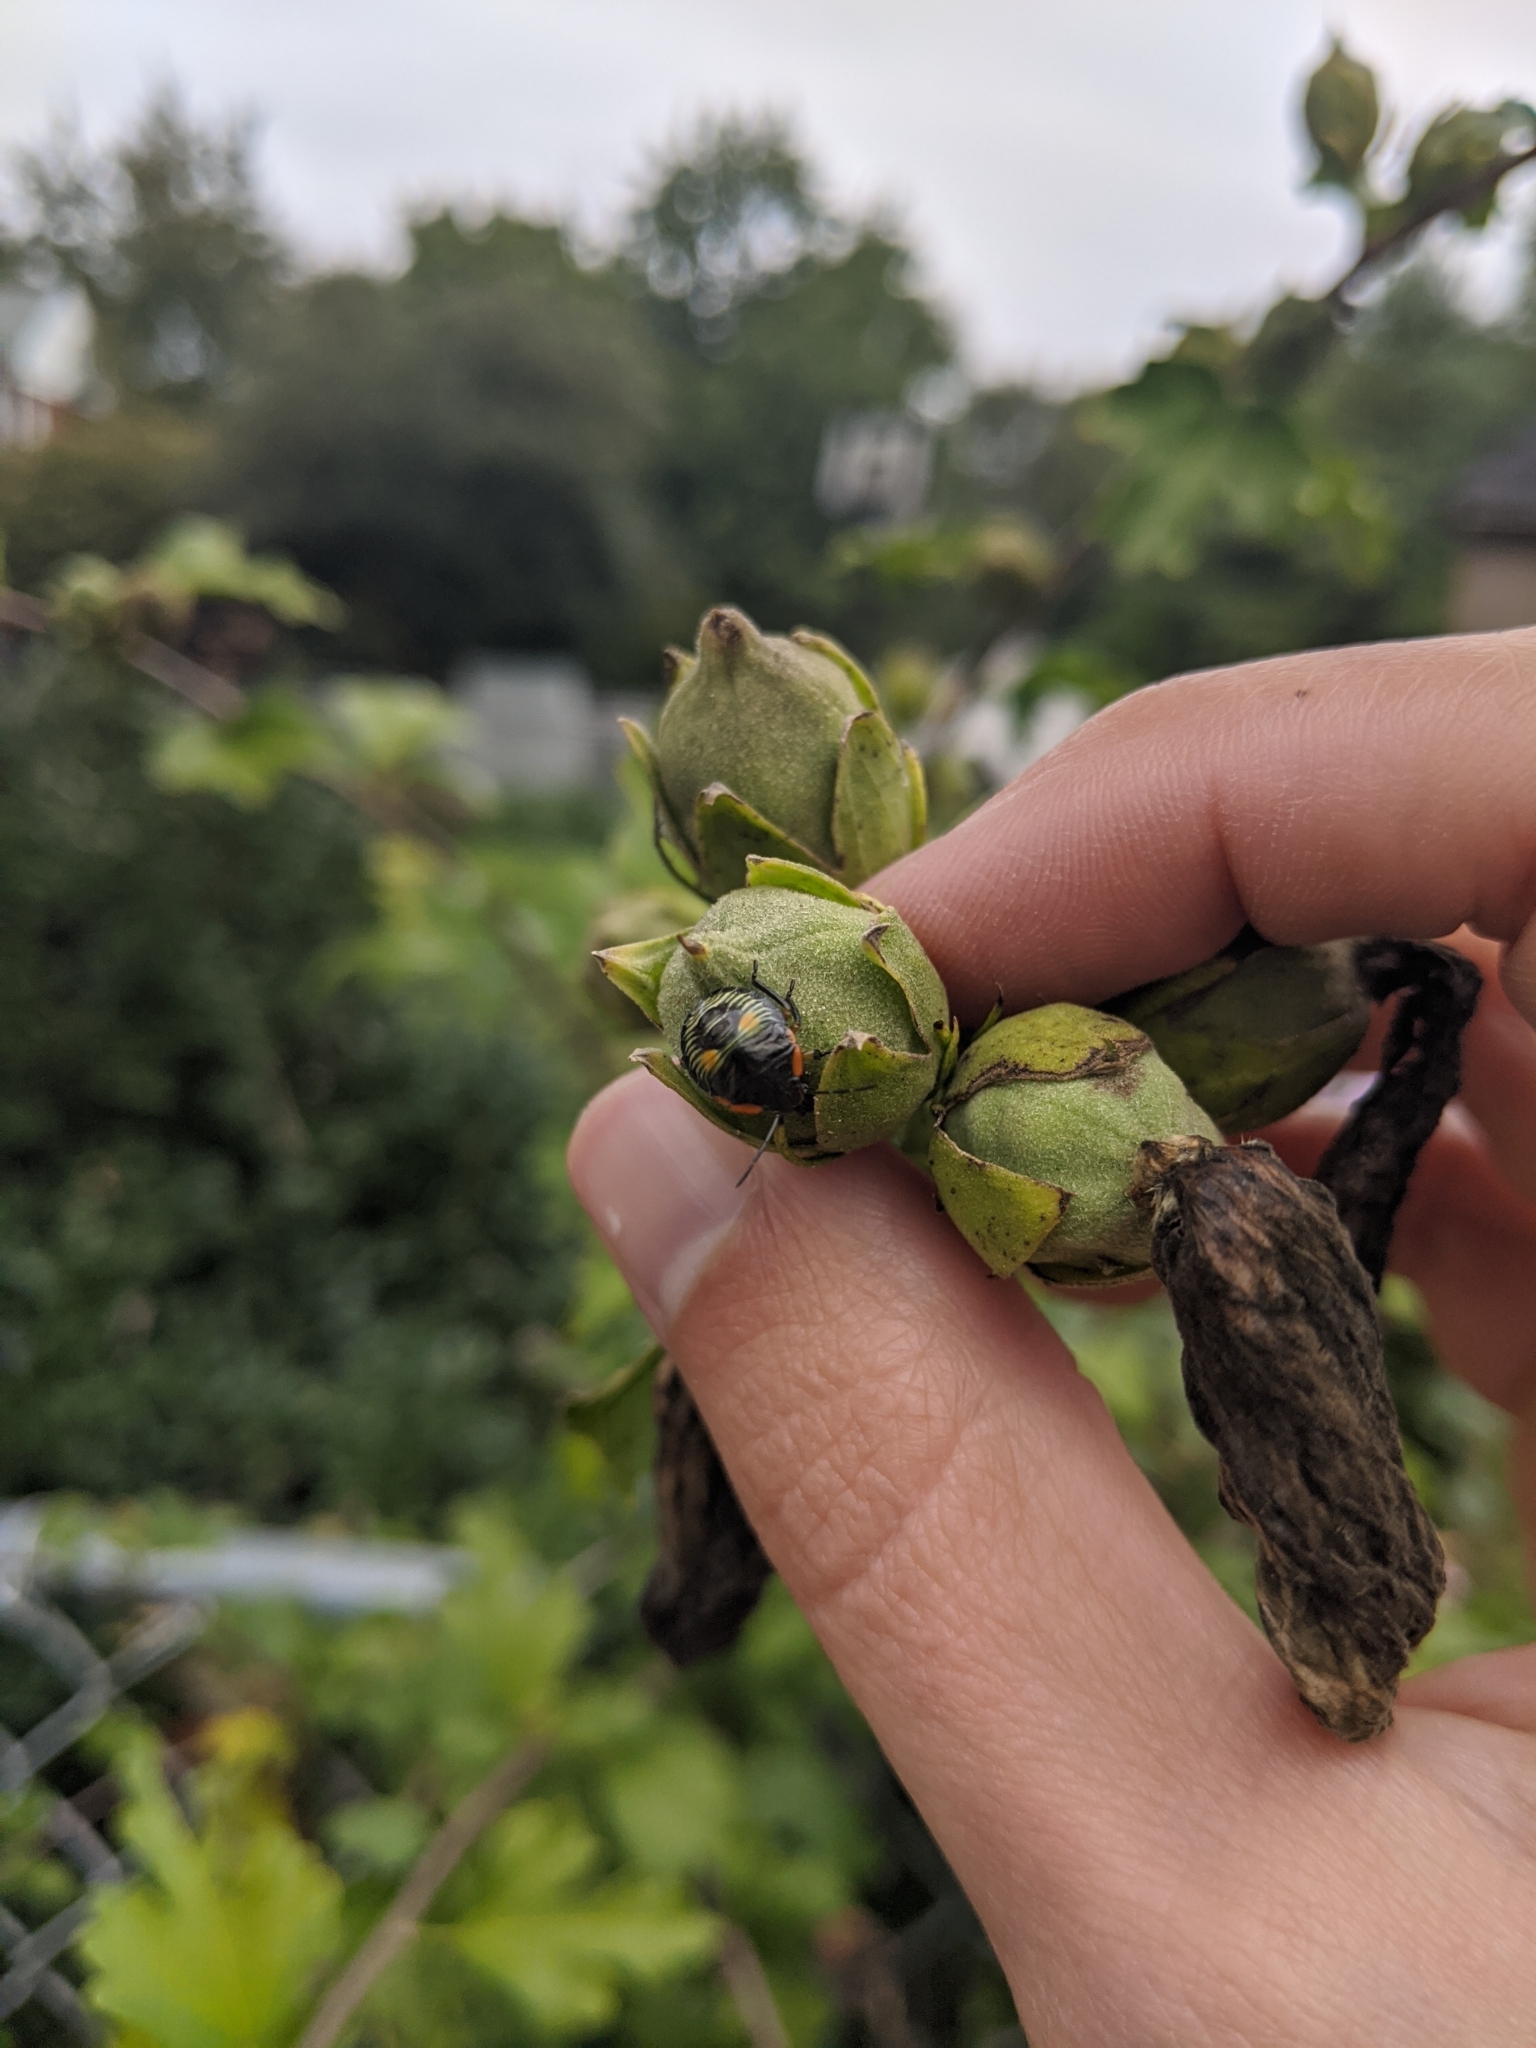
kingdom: Animalia
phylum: Arthropoda
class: Insecta
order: Hemiptera
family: Pentatomidae
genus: Chinavia
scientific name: Chinavia hilaris
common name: Green stink bug
